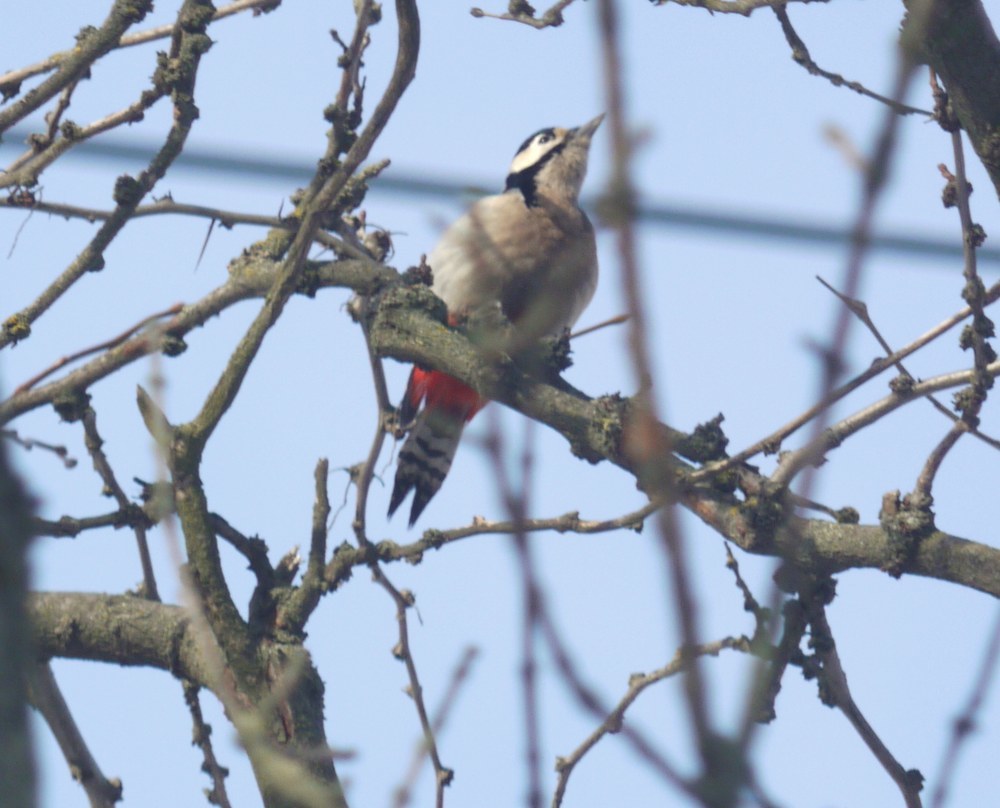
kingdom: Animalia
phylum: Chordata
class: Aves
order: Piciformes
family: Picidae
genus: Dendrocopos
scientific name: Dendrocopos major
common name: Great spotted woodpecker
